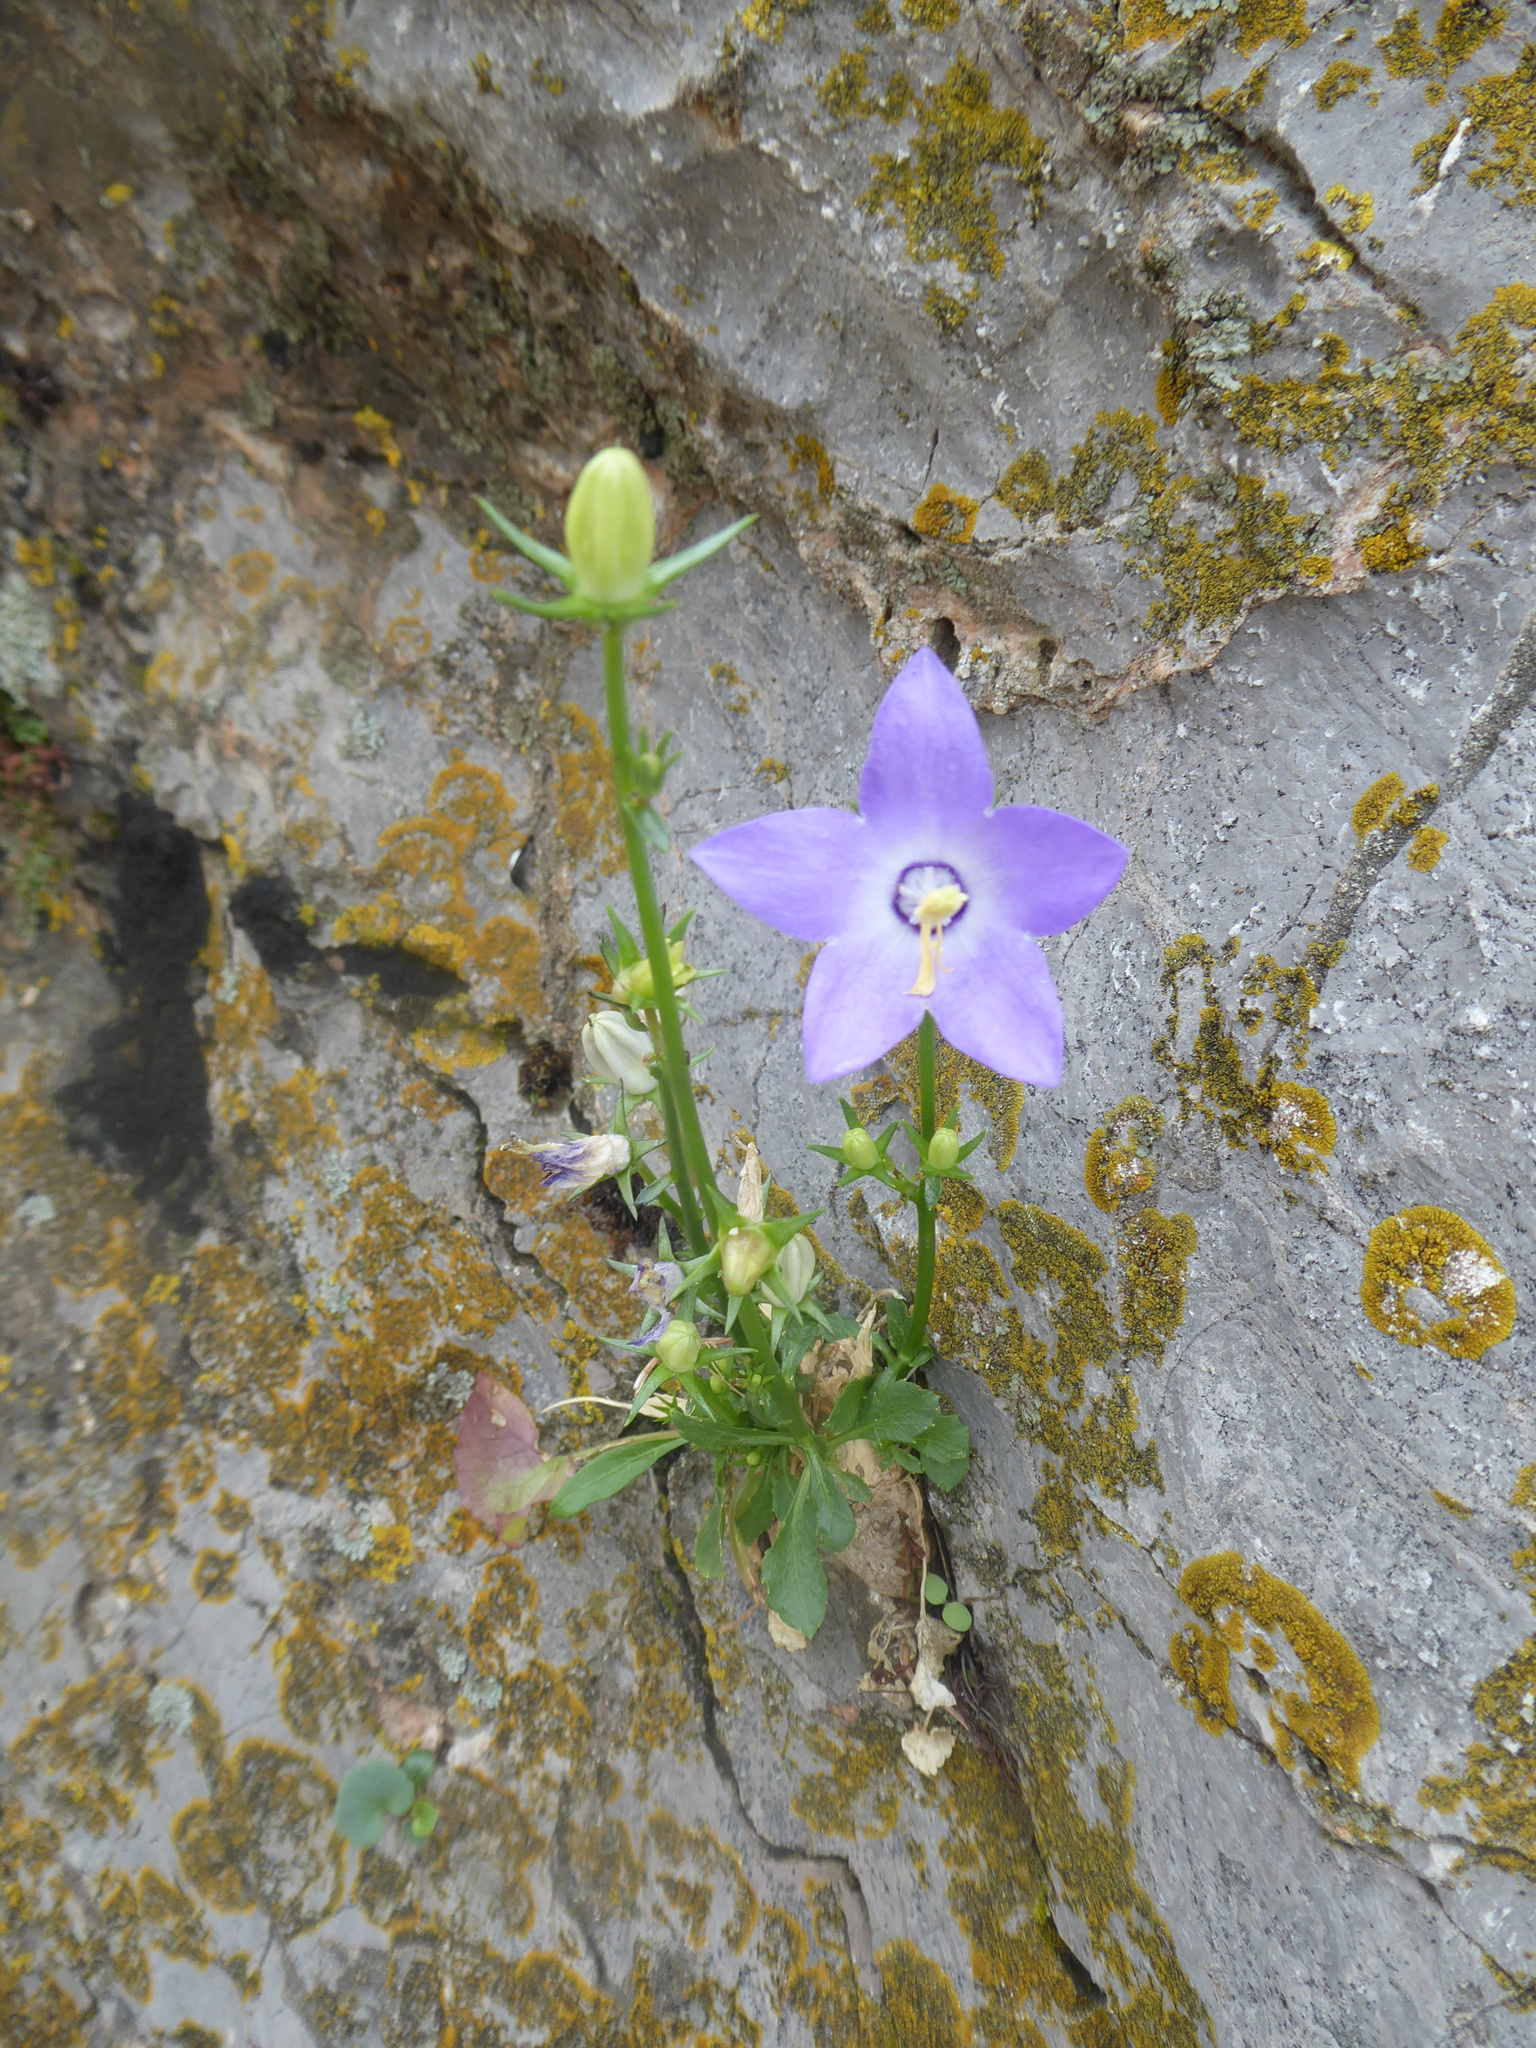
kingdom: Plantae
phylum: Tracheophyta
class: Magnoliopsida
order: Asterales
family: Campanulaceae
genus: Campanula
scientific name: Campanula pyramidalis
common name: Chimney bellflower
